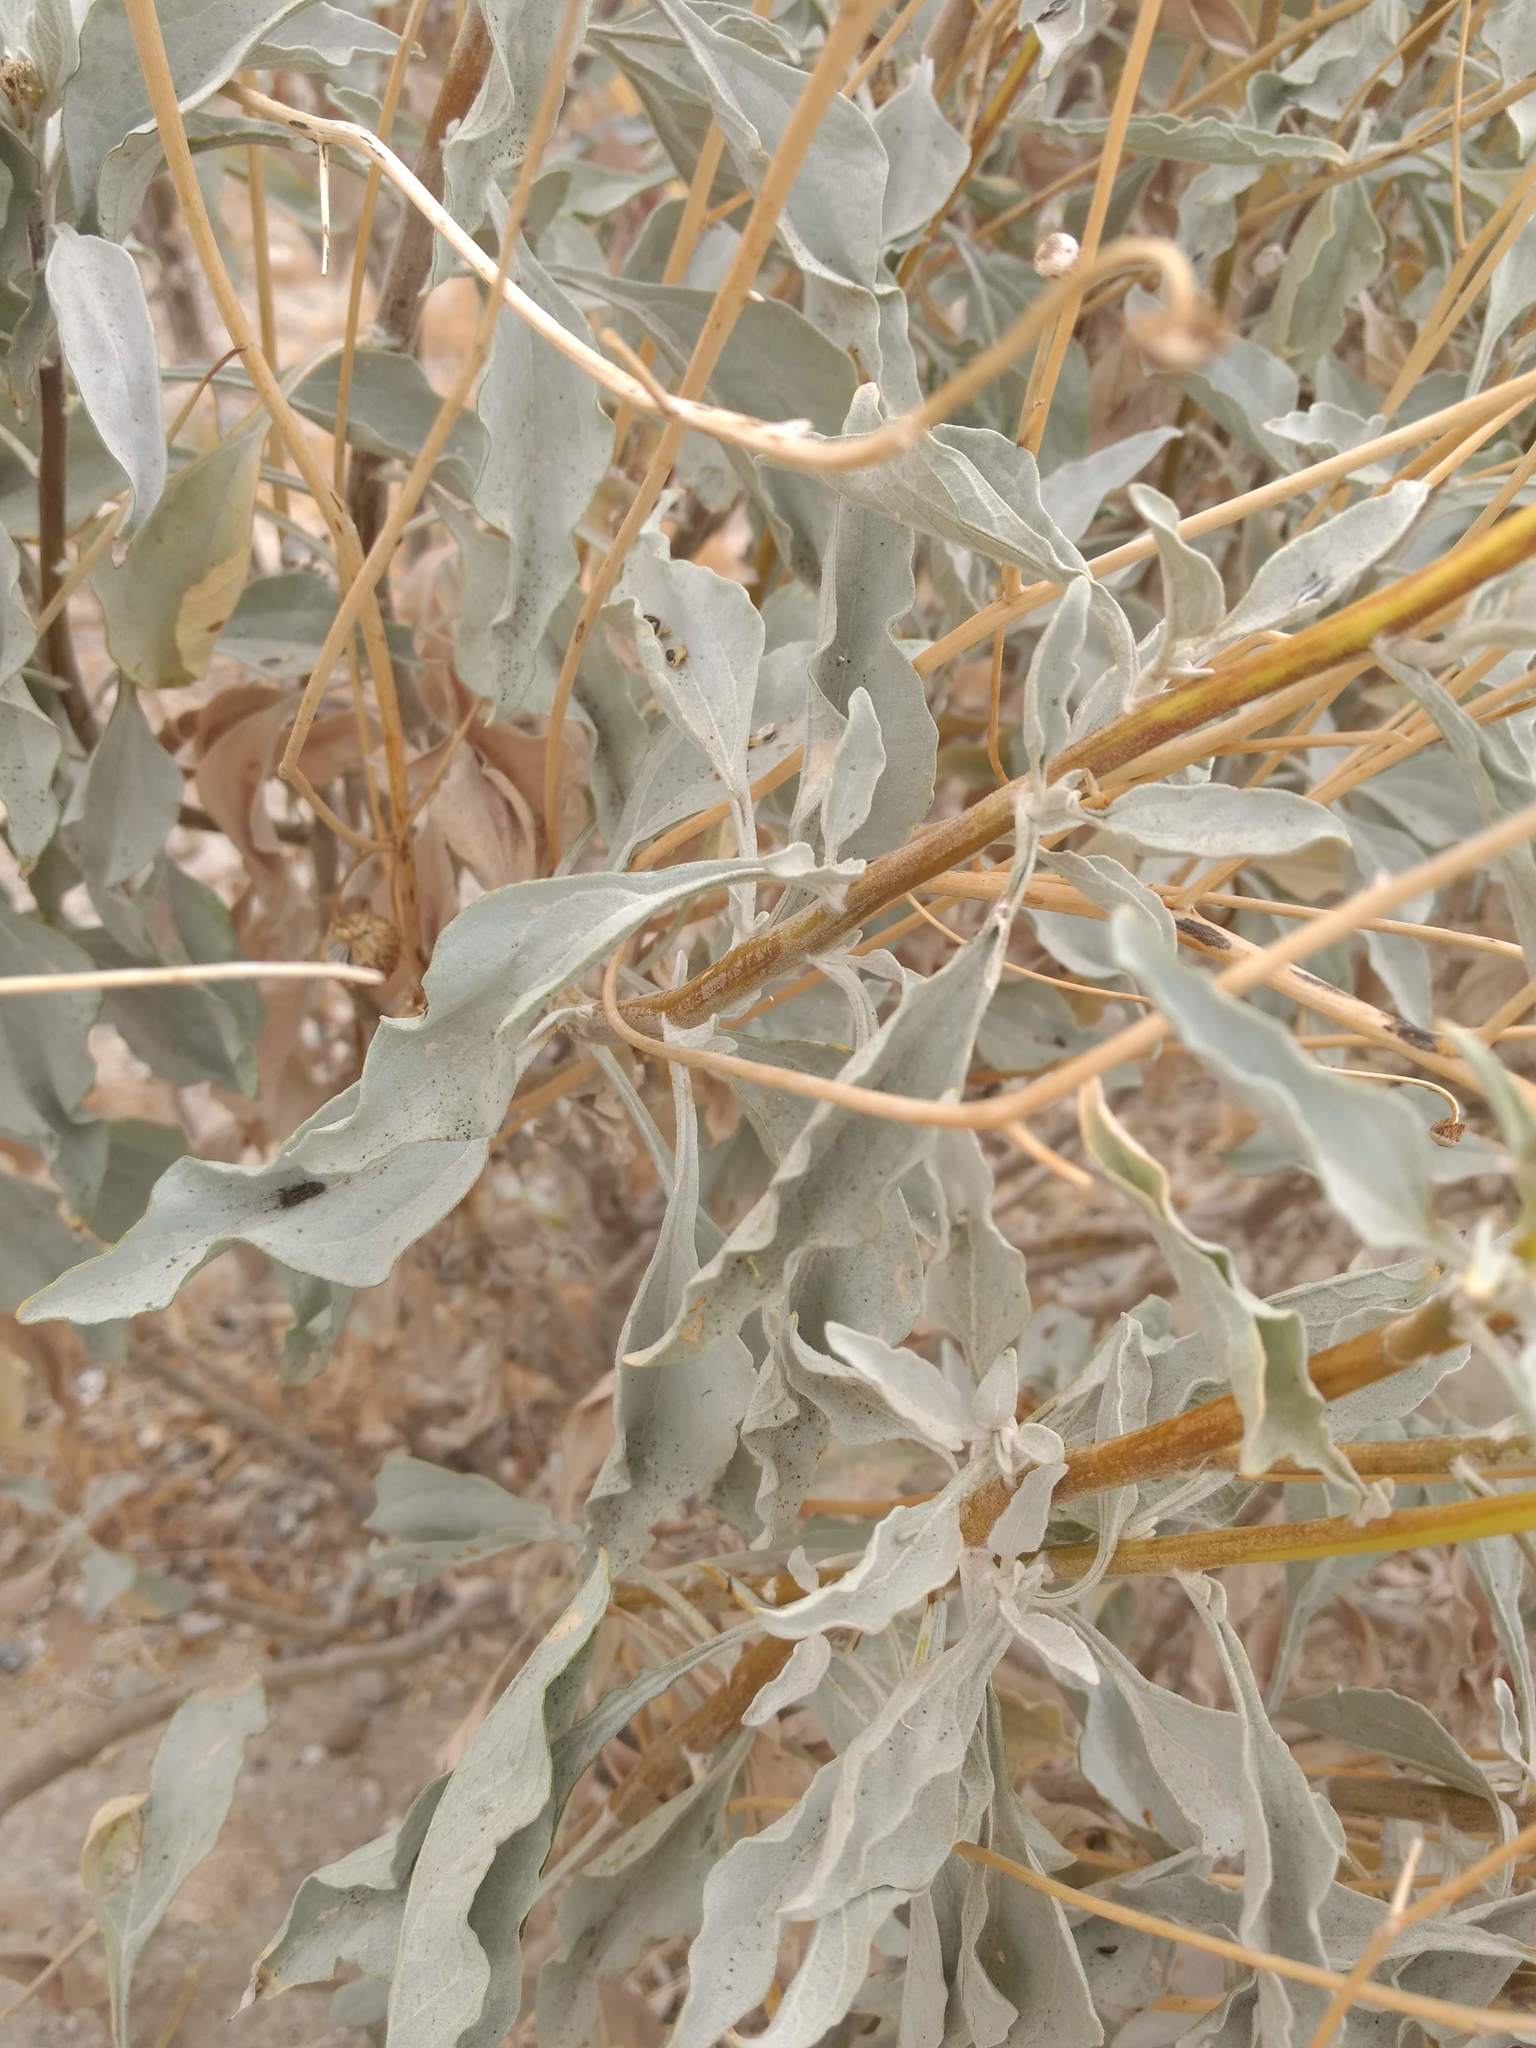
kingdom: Plantae
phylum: Tracheophyta
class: Magnoliopsida
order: Asterales
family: Asteraceae
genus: Encelia
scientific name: Encelia farinosa
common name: Brittlebush
